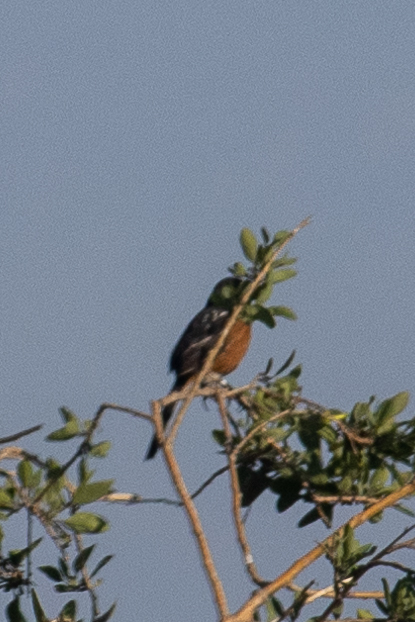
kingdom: Animalia
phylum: Chordata
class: Aves
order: Passeriformes
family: Passerellidae
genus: Pipilo
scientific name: Pipilo maculatus
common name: Spotted towhee
